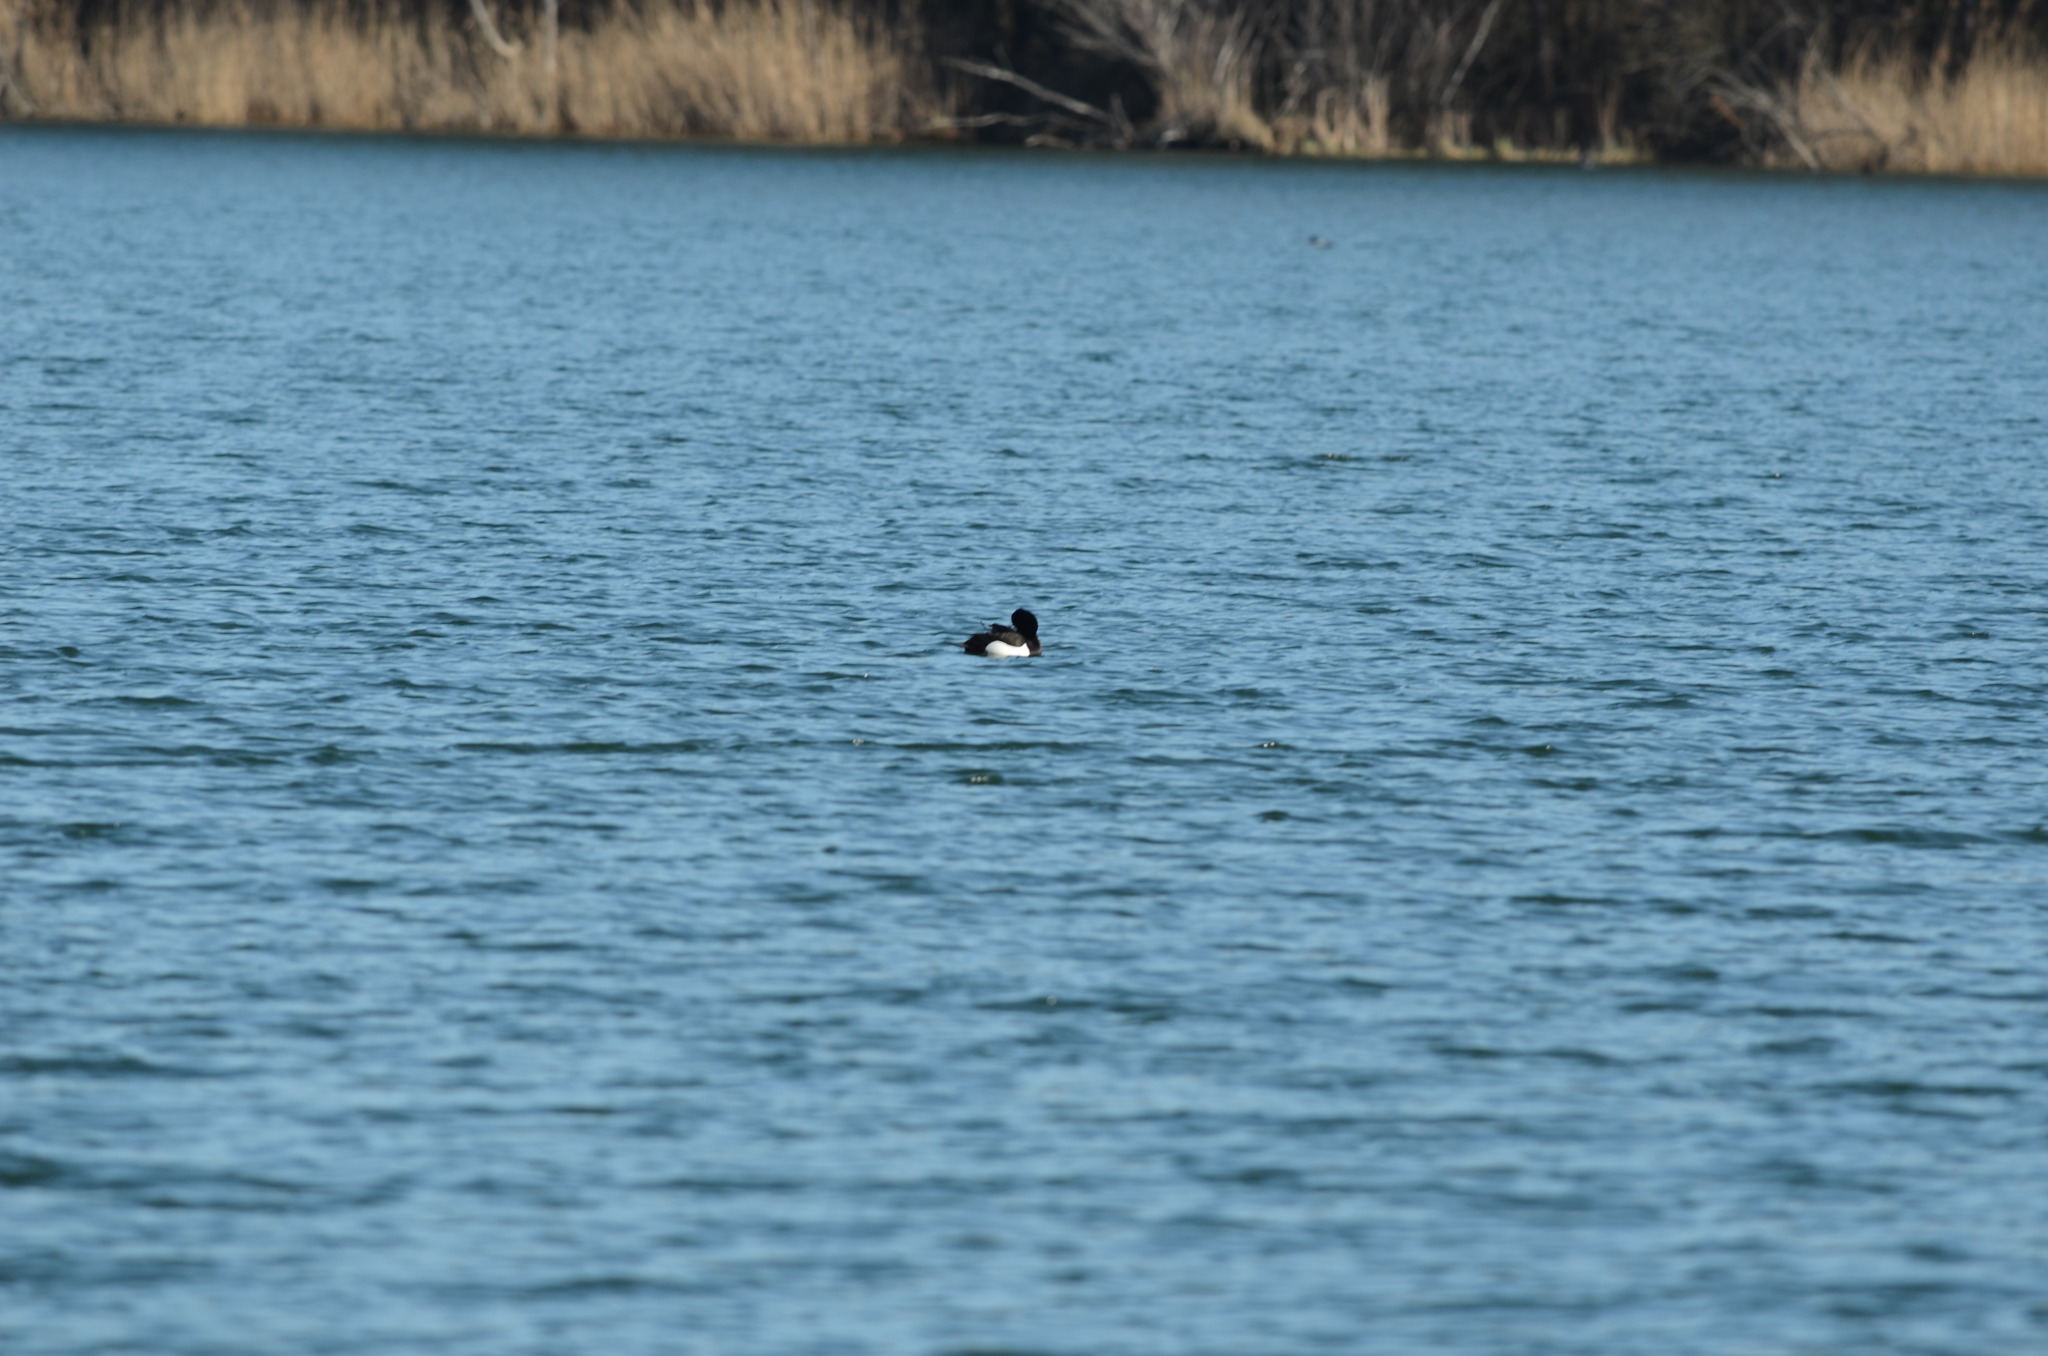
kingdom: Animalia
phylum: Chordata
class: Aves
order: Anseriformes
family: Anatidae
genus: Aythya
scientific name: Aythya fuligula
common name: Tufted duck
